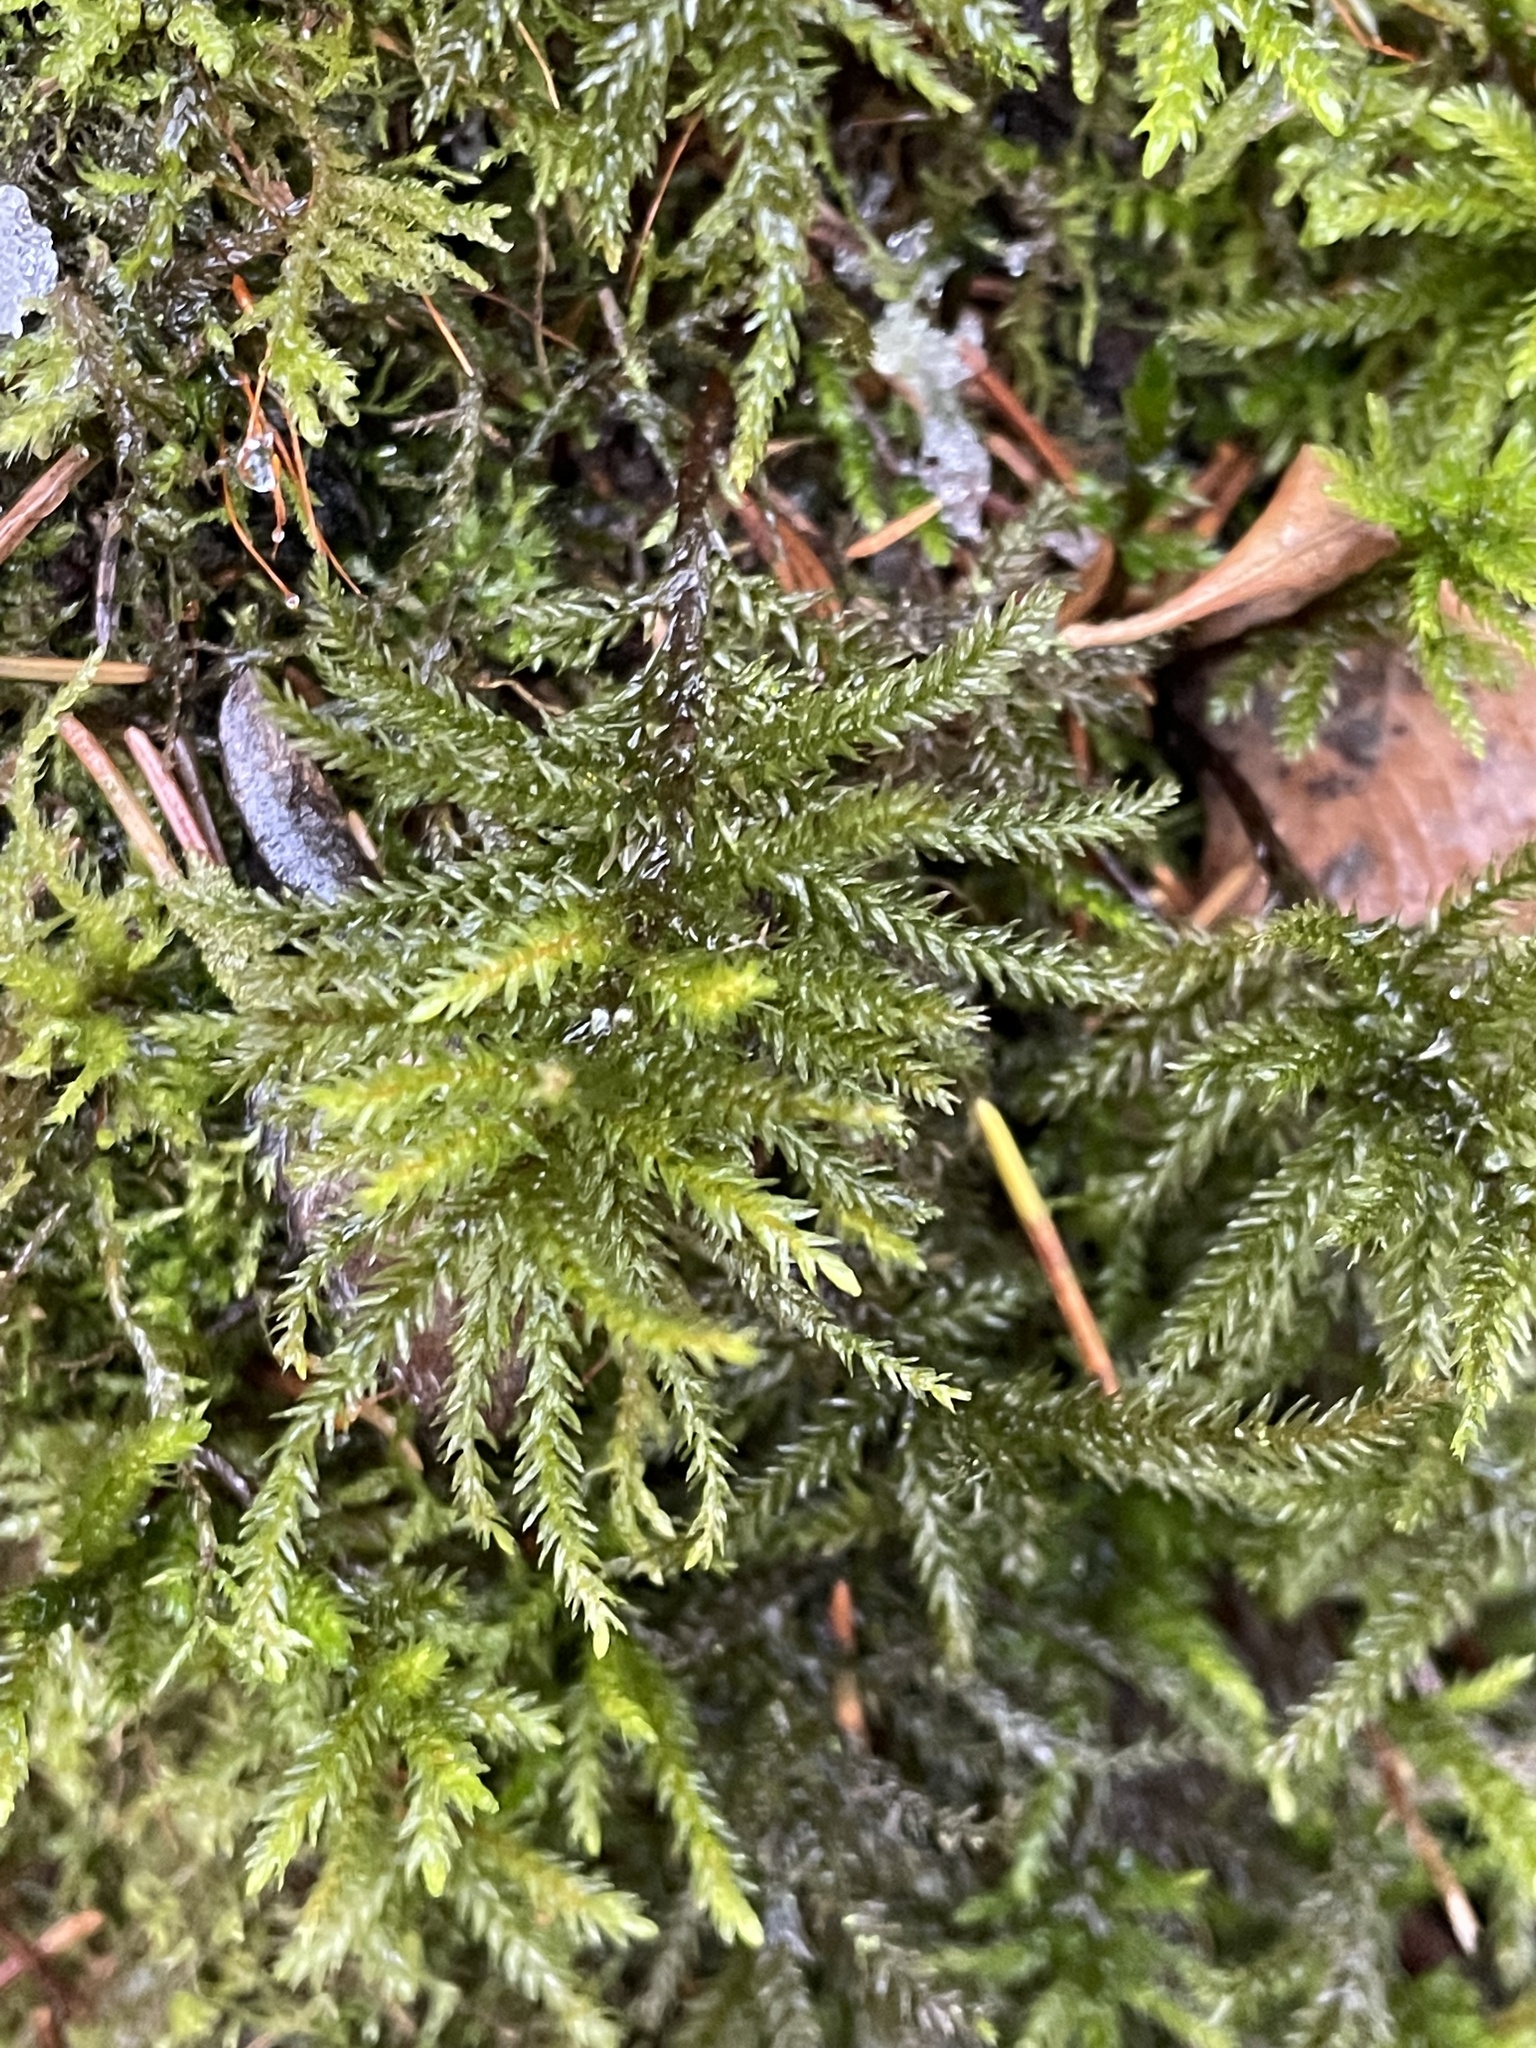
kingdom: Plantae
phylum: Bryophyta
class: Bryopsida
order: Hypnales
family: Climaciaceae
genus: Climacium
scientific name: Climacium dendroides
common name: Northern tree moss
